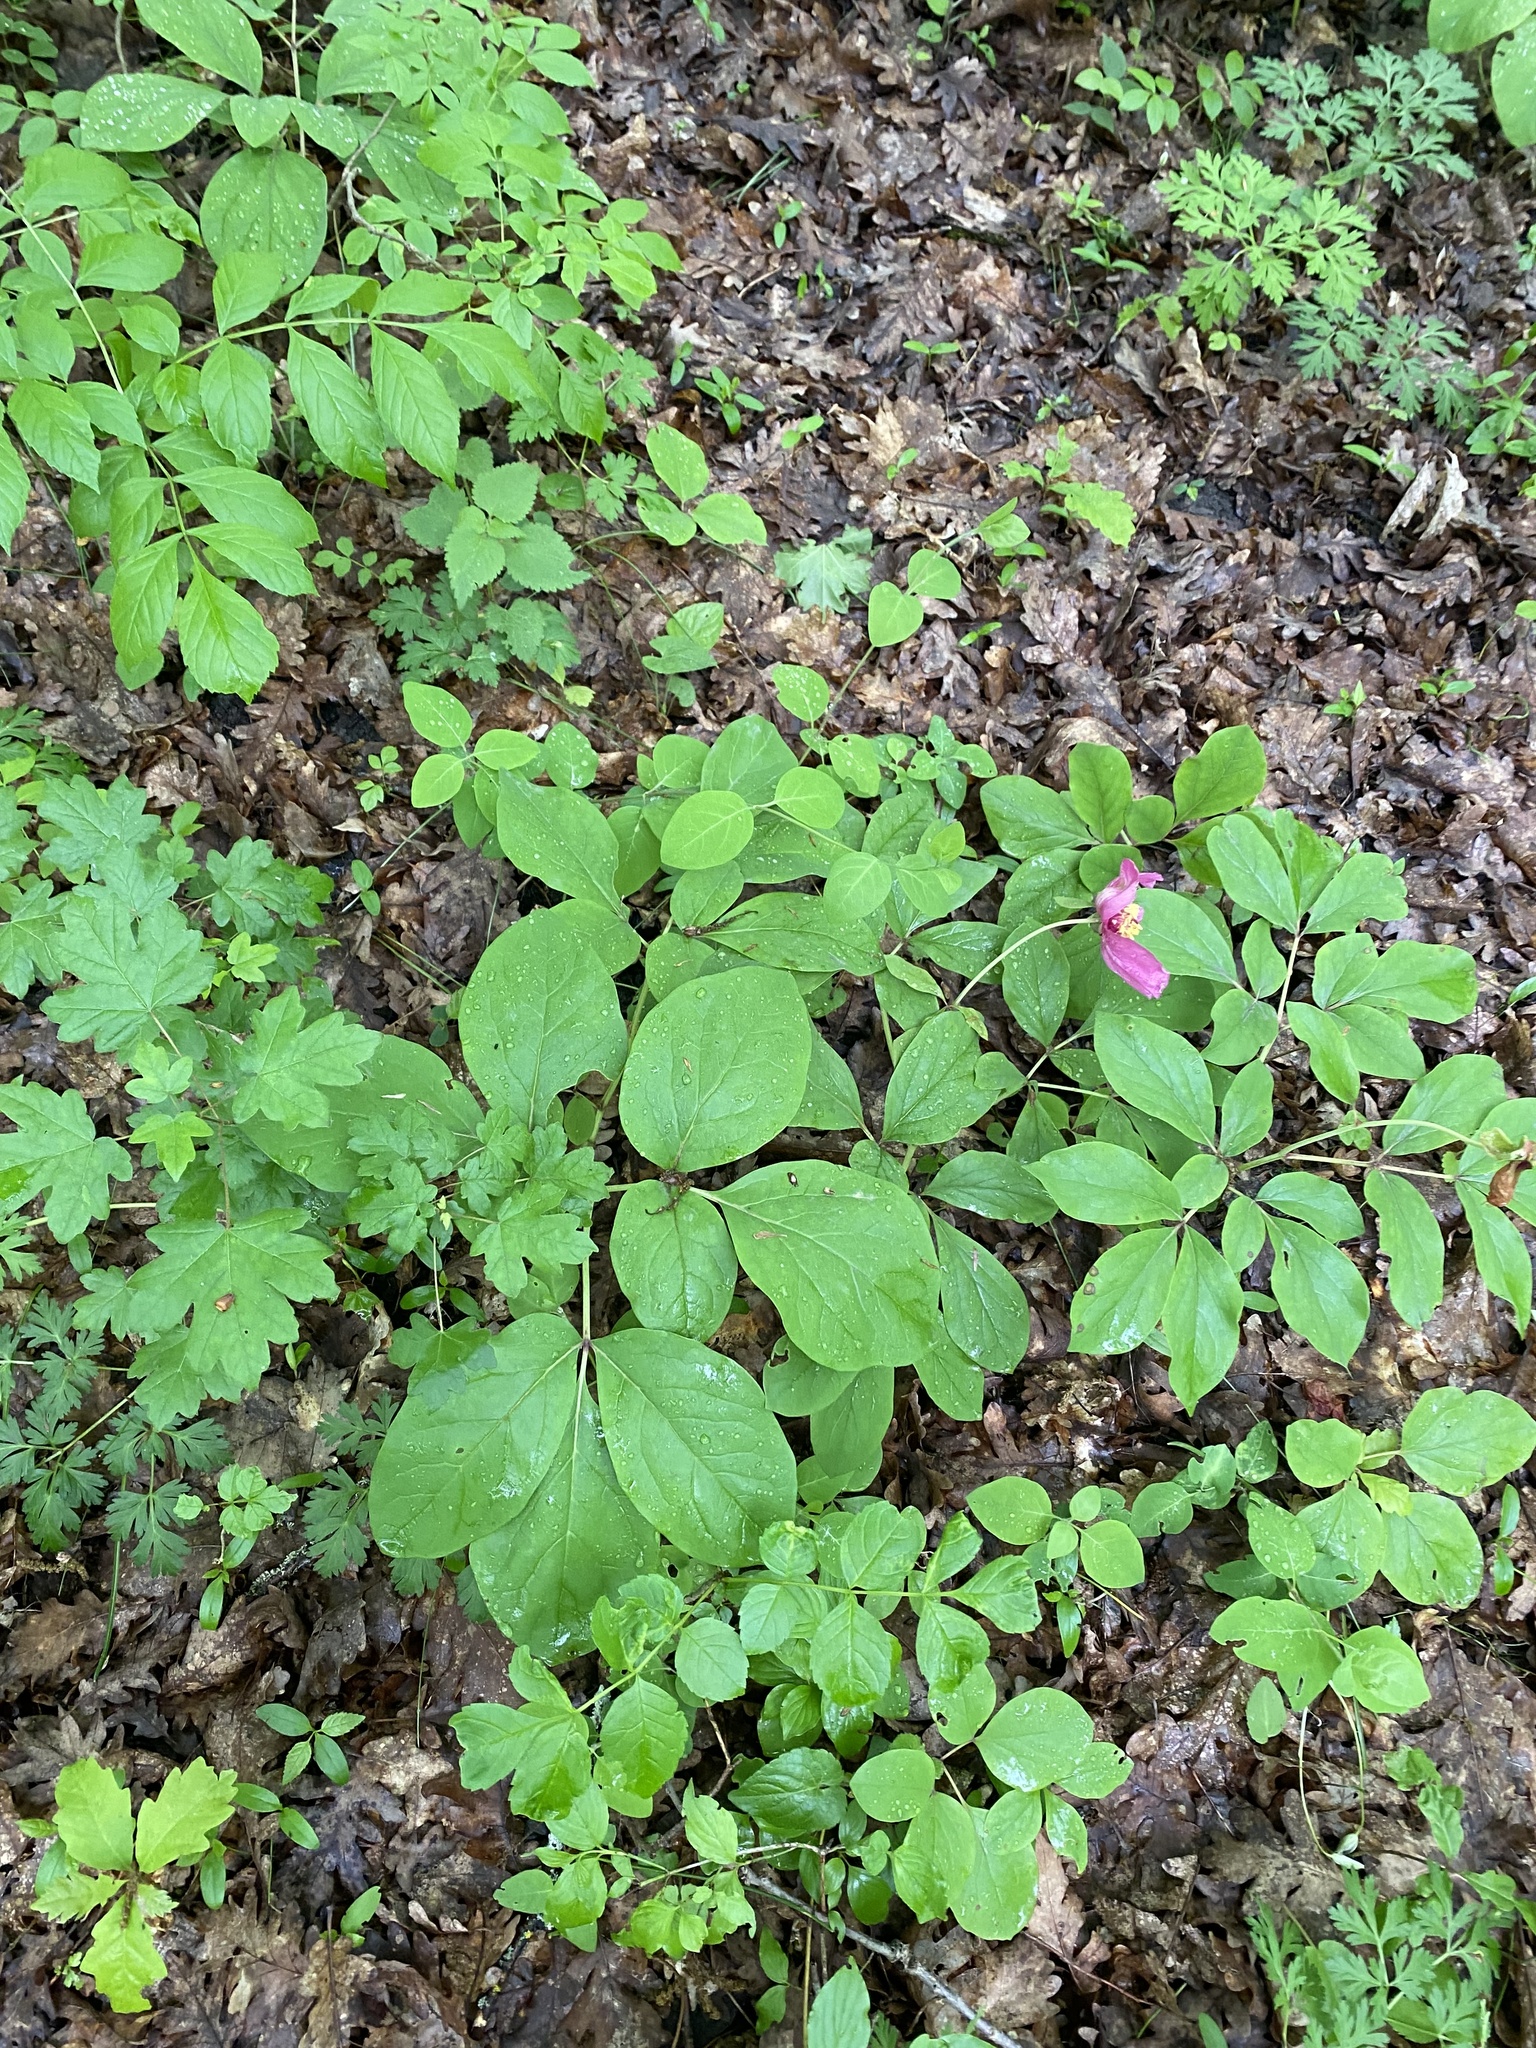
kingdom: Plantae
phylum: Tracheophyta
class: Magnoliopsida
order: Saxifragales
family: Paeoniaceae
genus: Paeonia
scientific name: Paeonia caucasica
